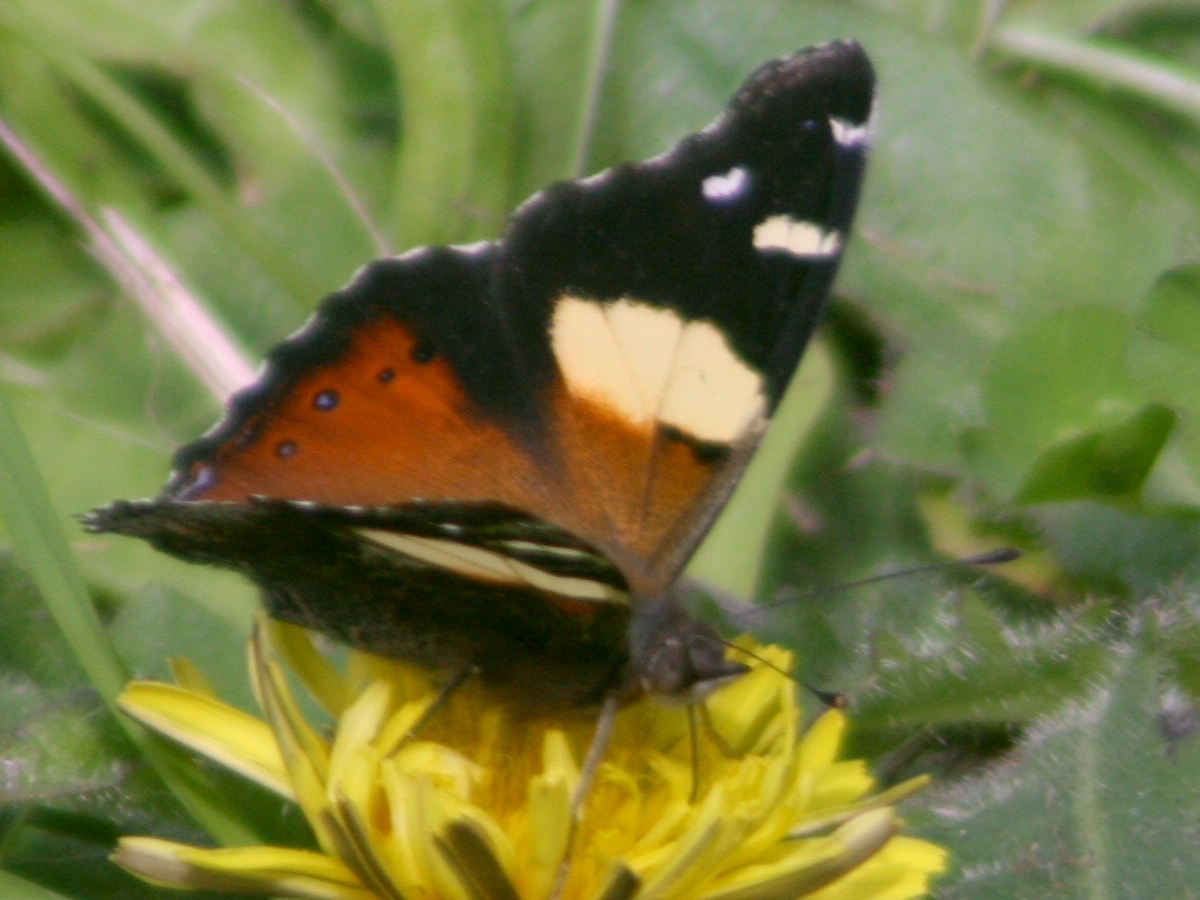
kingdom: Animalia
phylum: Arthropoda
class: Insecta
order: Lepidoptera
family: Nymphalidae
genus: Vanessa
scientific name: Vanessa itea
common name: Yellow admiral
